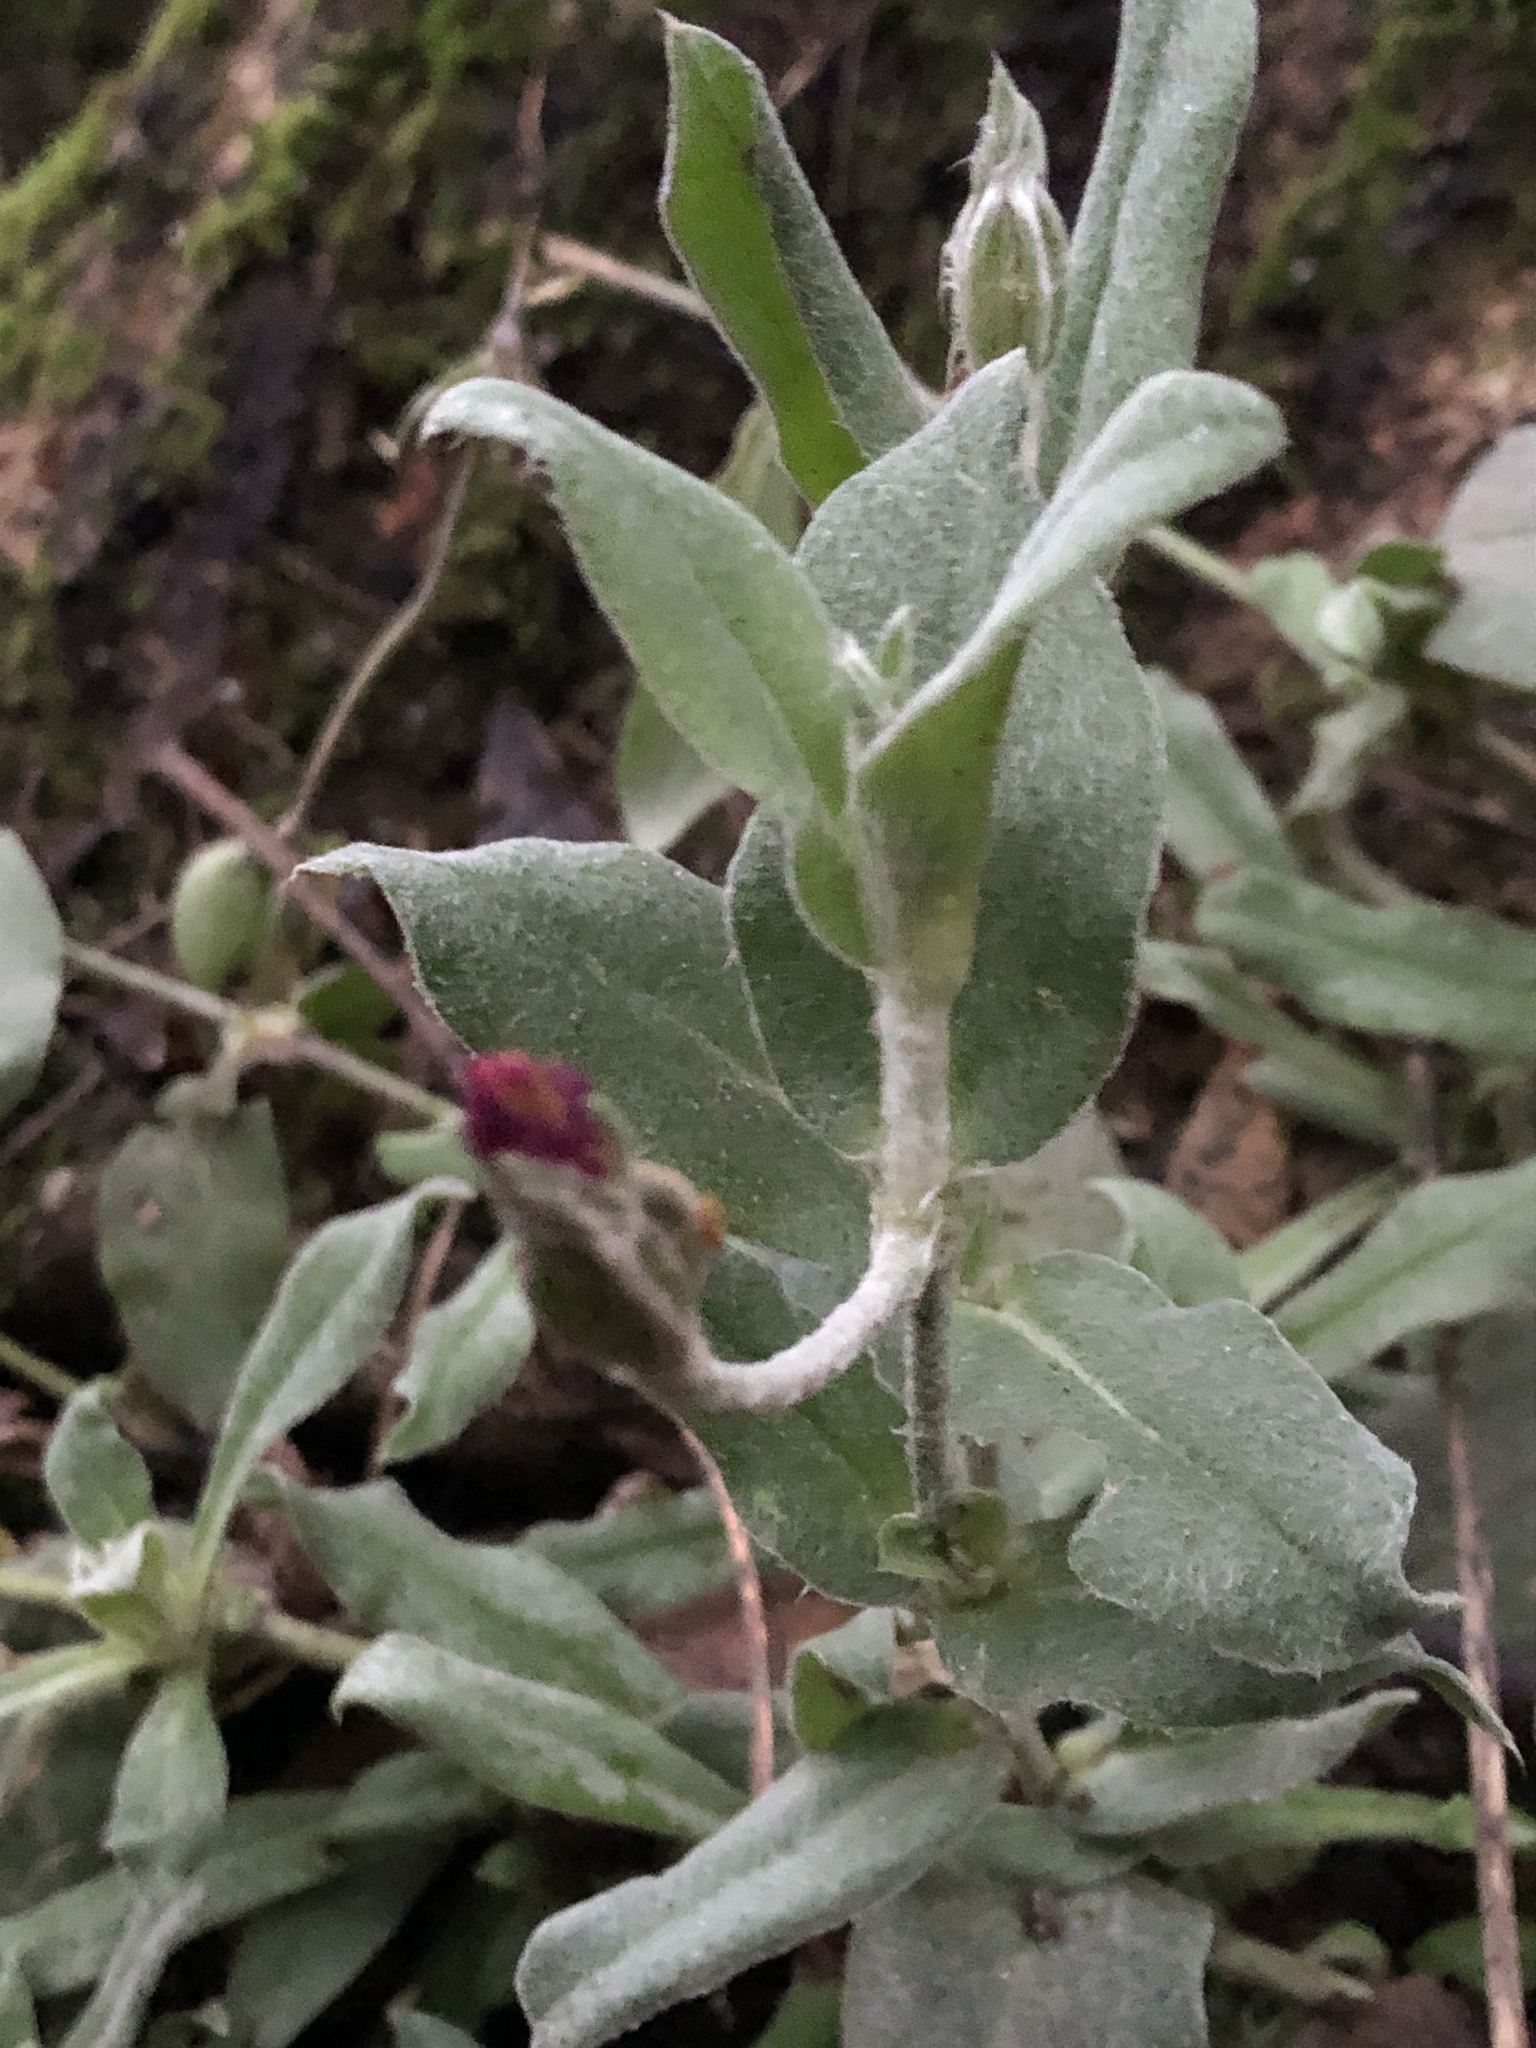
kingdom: Plantae
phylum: Tracheophyta
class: Magnoliopsida
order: Caryophyllales
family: Caryophyllaceae
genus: Silene
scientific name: Silene coronaria
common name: Rose campion
